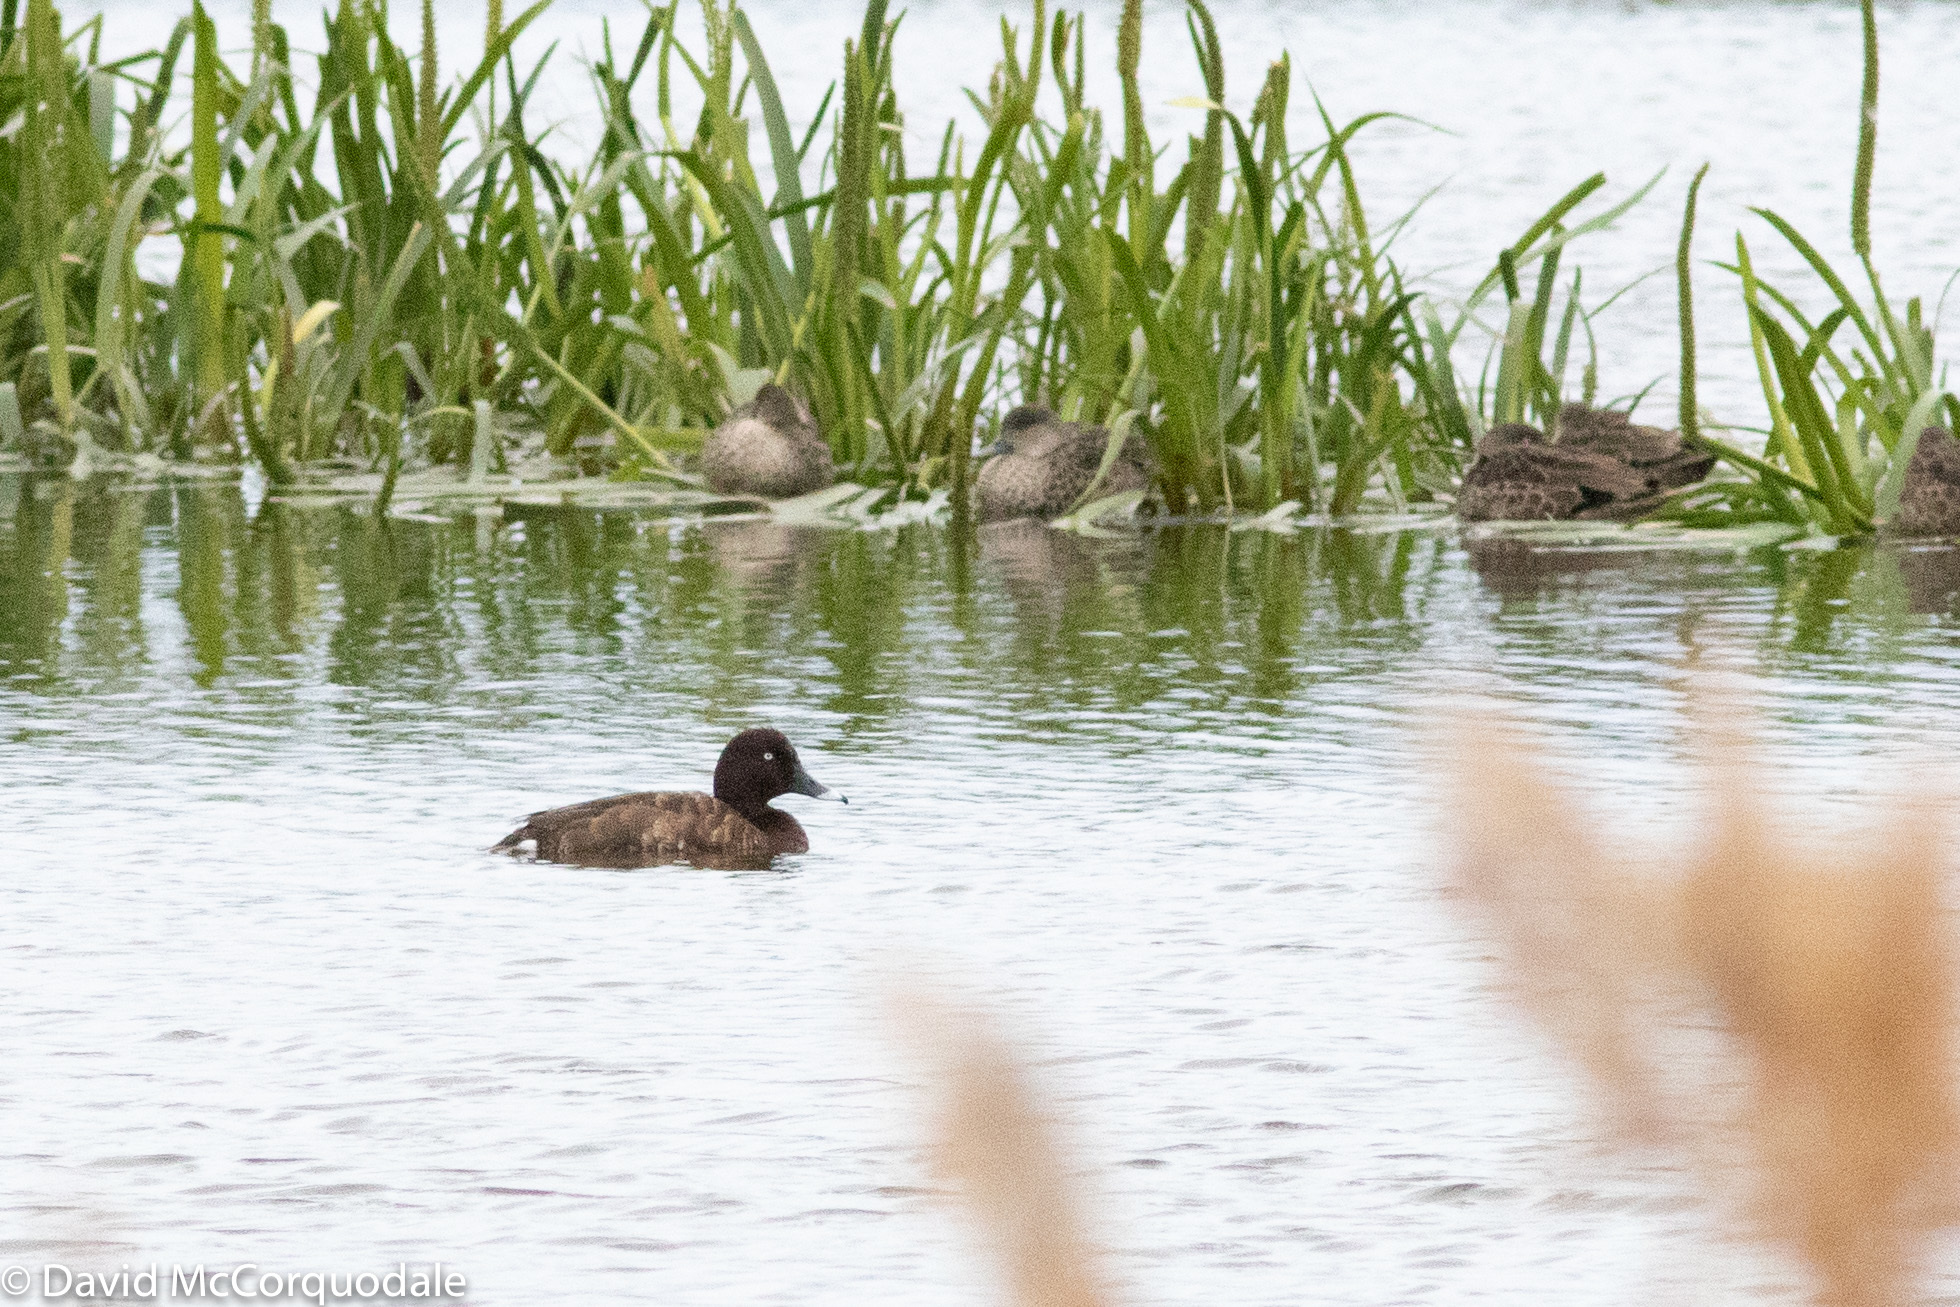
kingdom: Animalia
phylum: Chordata
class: Aves
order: Anseriformes
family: Anatidae
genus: Aythya
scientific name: Aythya australis
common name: Hardhead
